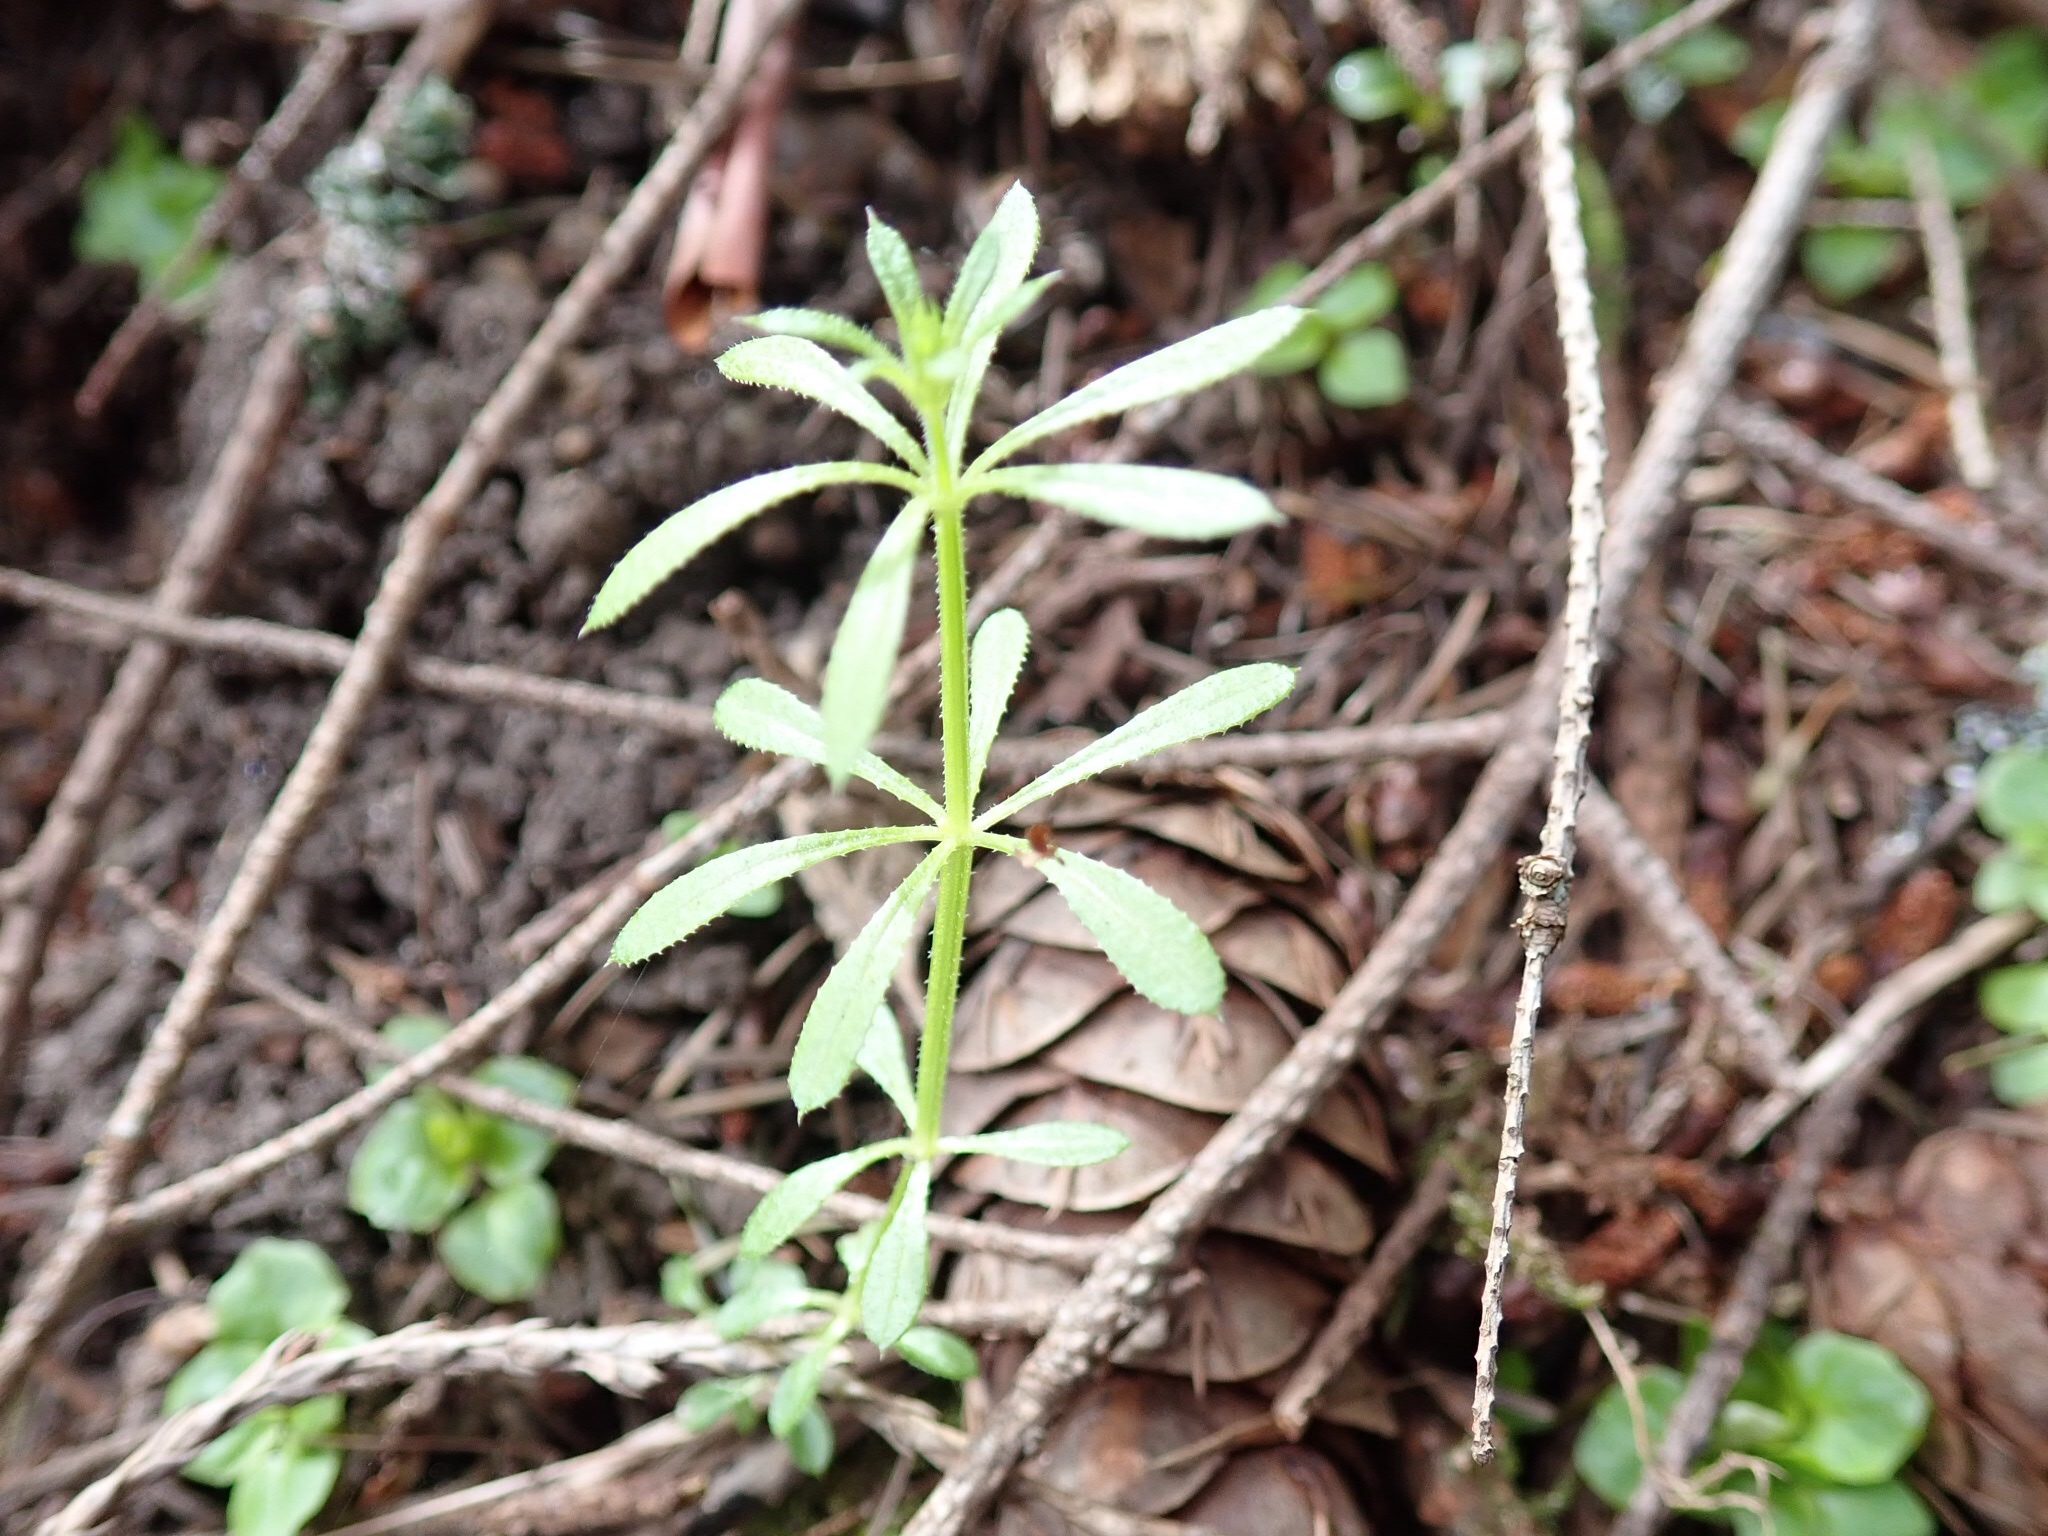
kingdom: Plantae
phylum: Tracheophyta
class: Magnoliopsida
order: Gentianales
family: Rubiaceae
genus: Galium
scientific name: Galium aparine
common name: Cleavers
